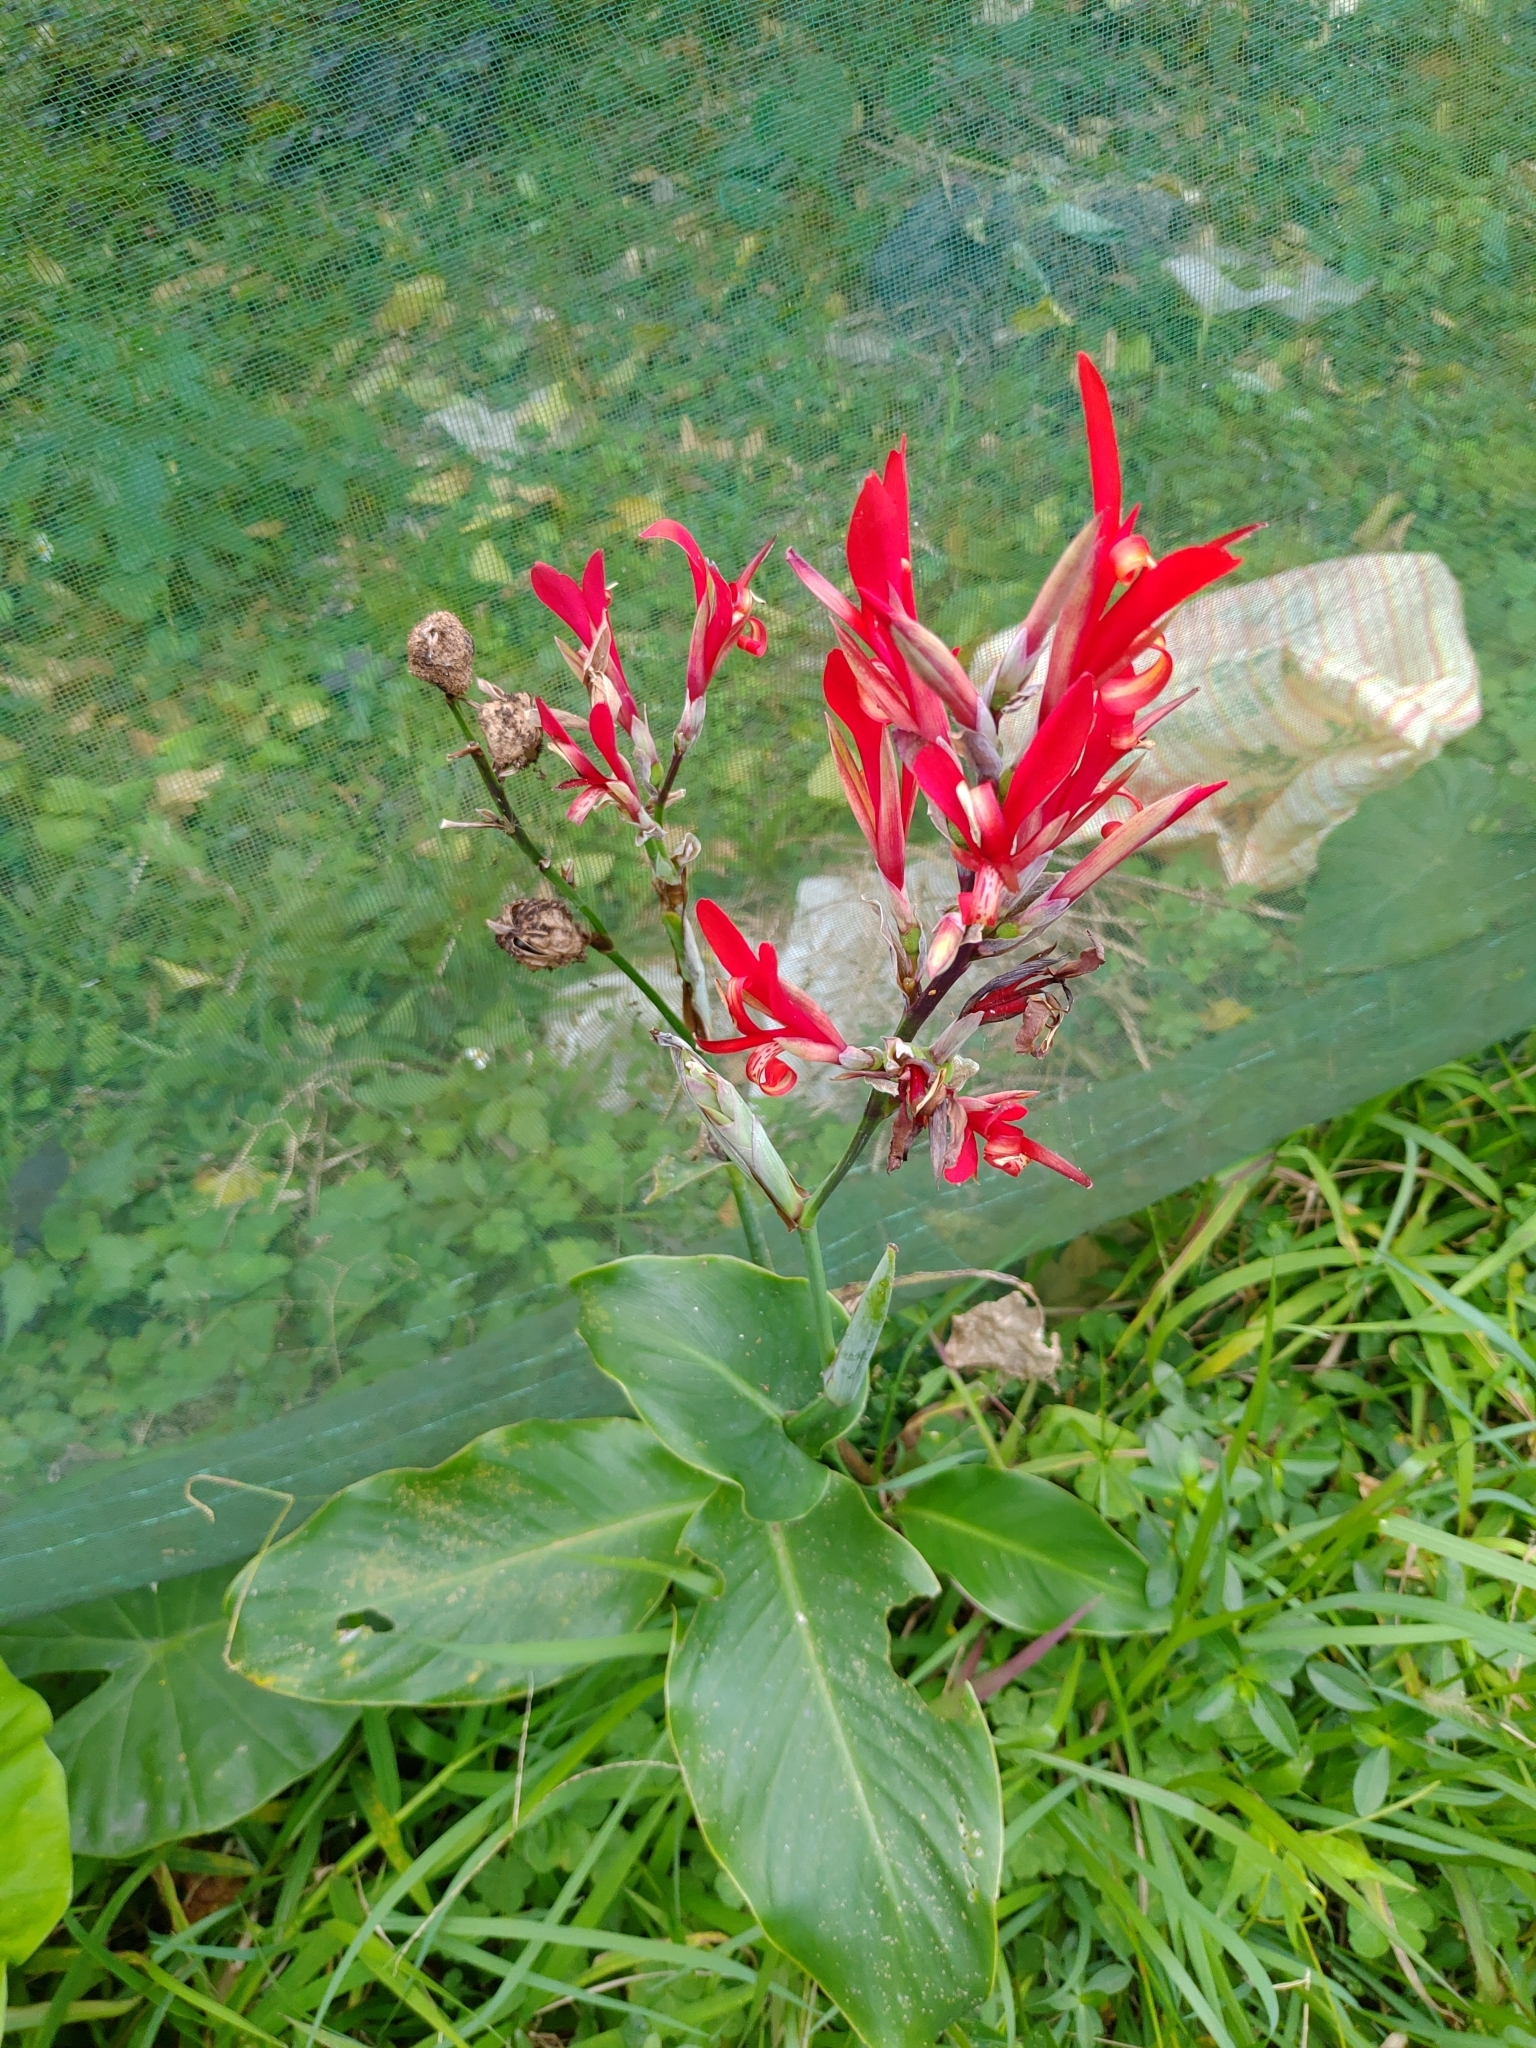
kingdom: Plantae
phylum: Tracheophyta
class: Liliopsida
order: Zingiberales
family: Cannaceae
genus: Canna
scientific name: Canna indica
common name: Indian shot
